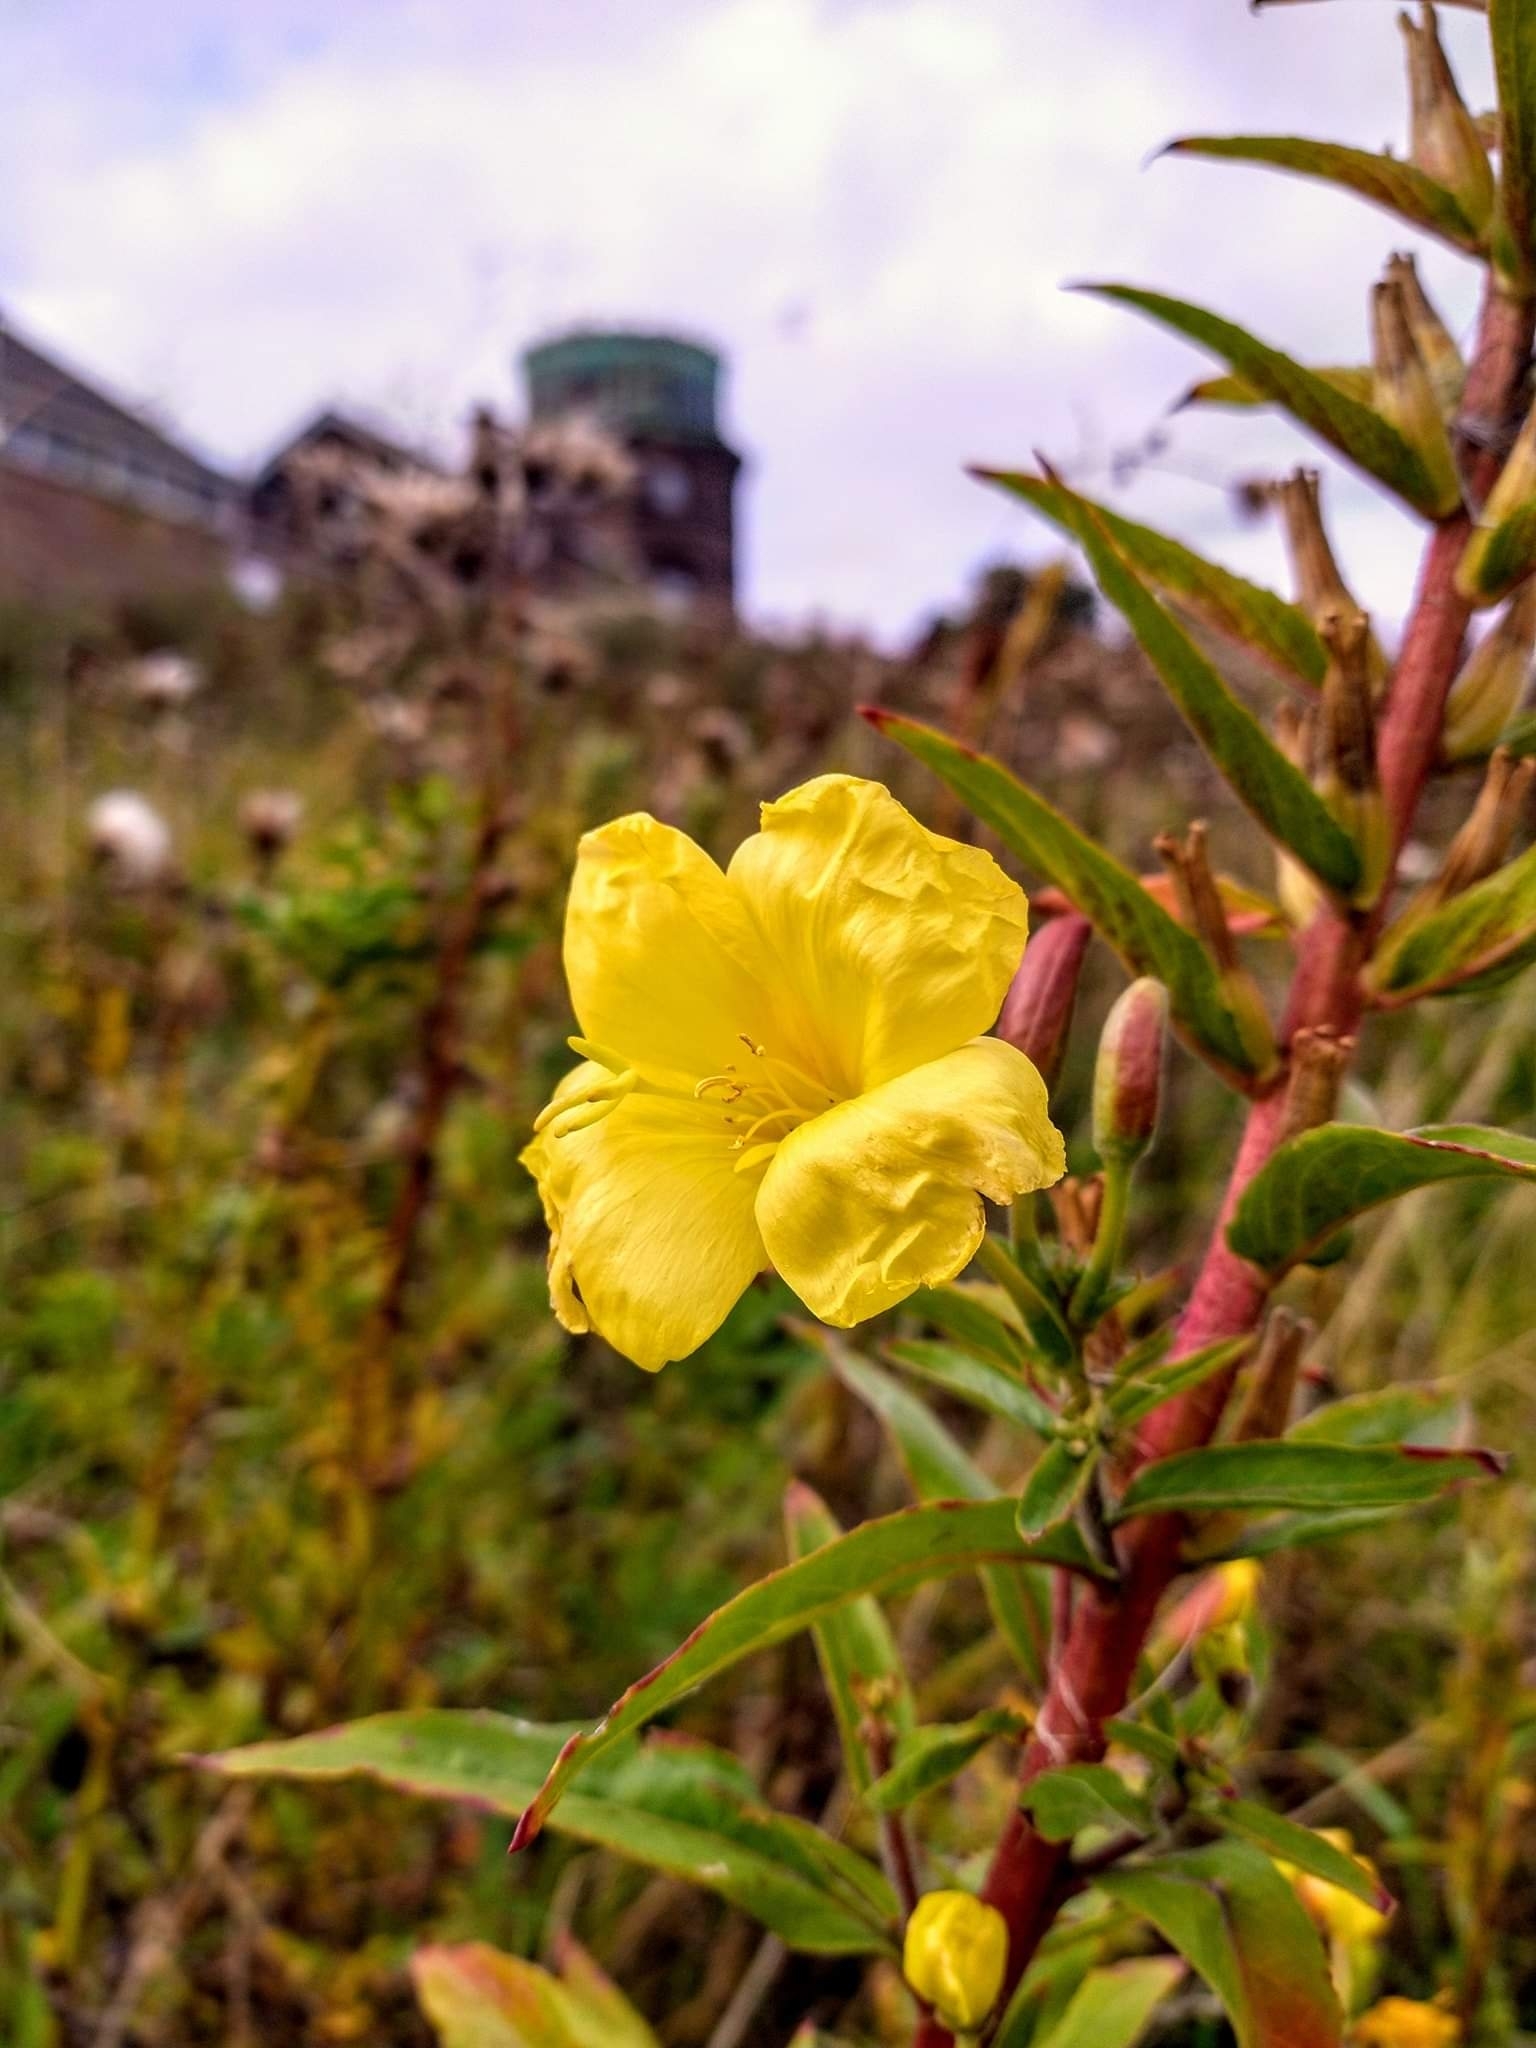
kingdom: Plantae
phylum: Tracheophyta
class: Magnoliopsida
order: Myrtales
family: Onagraceae
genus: Oenothera
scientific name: Oenothera glazioviana
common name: Large-flowered evening-primrose
